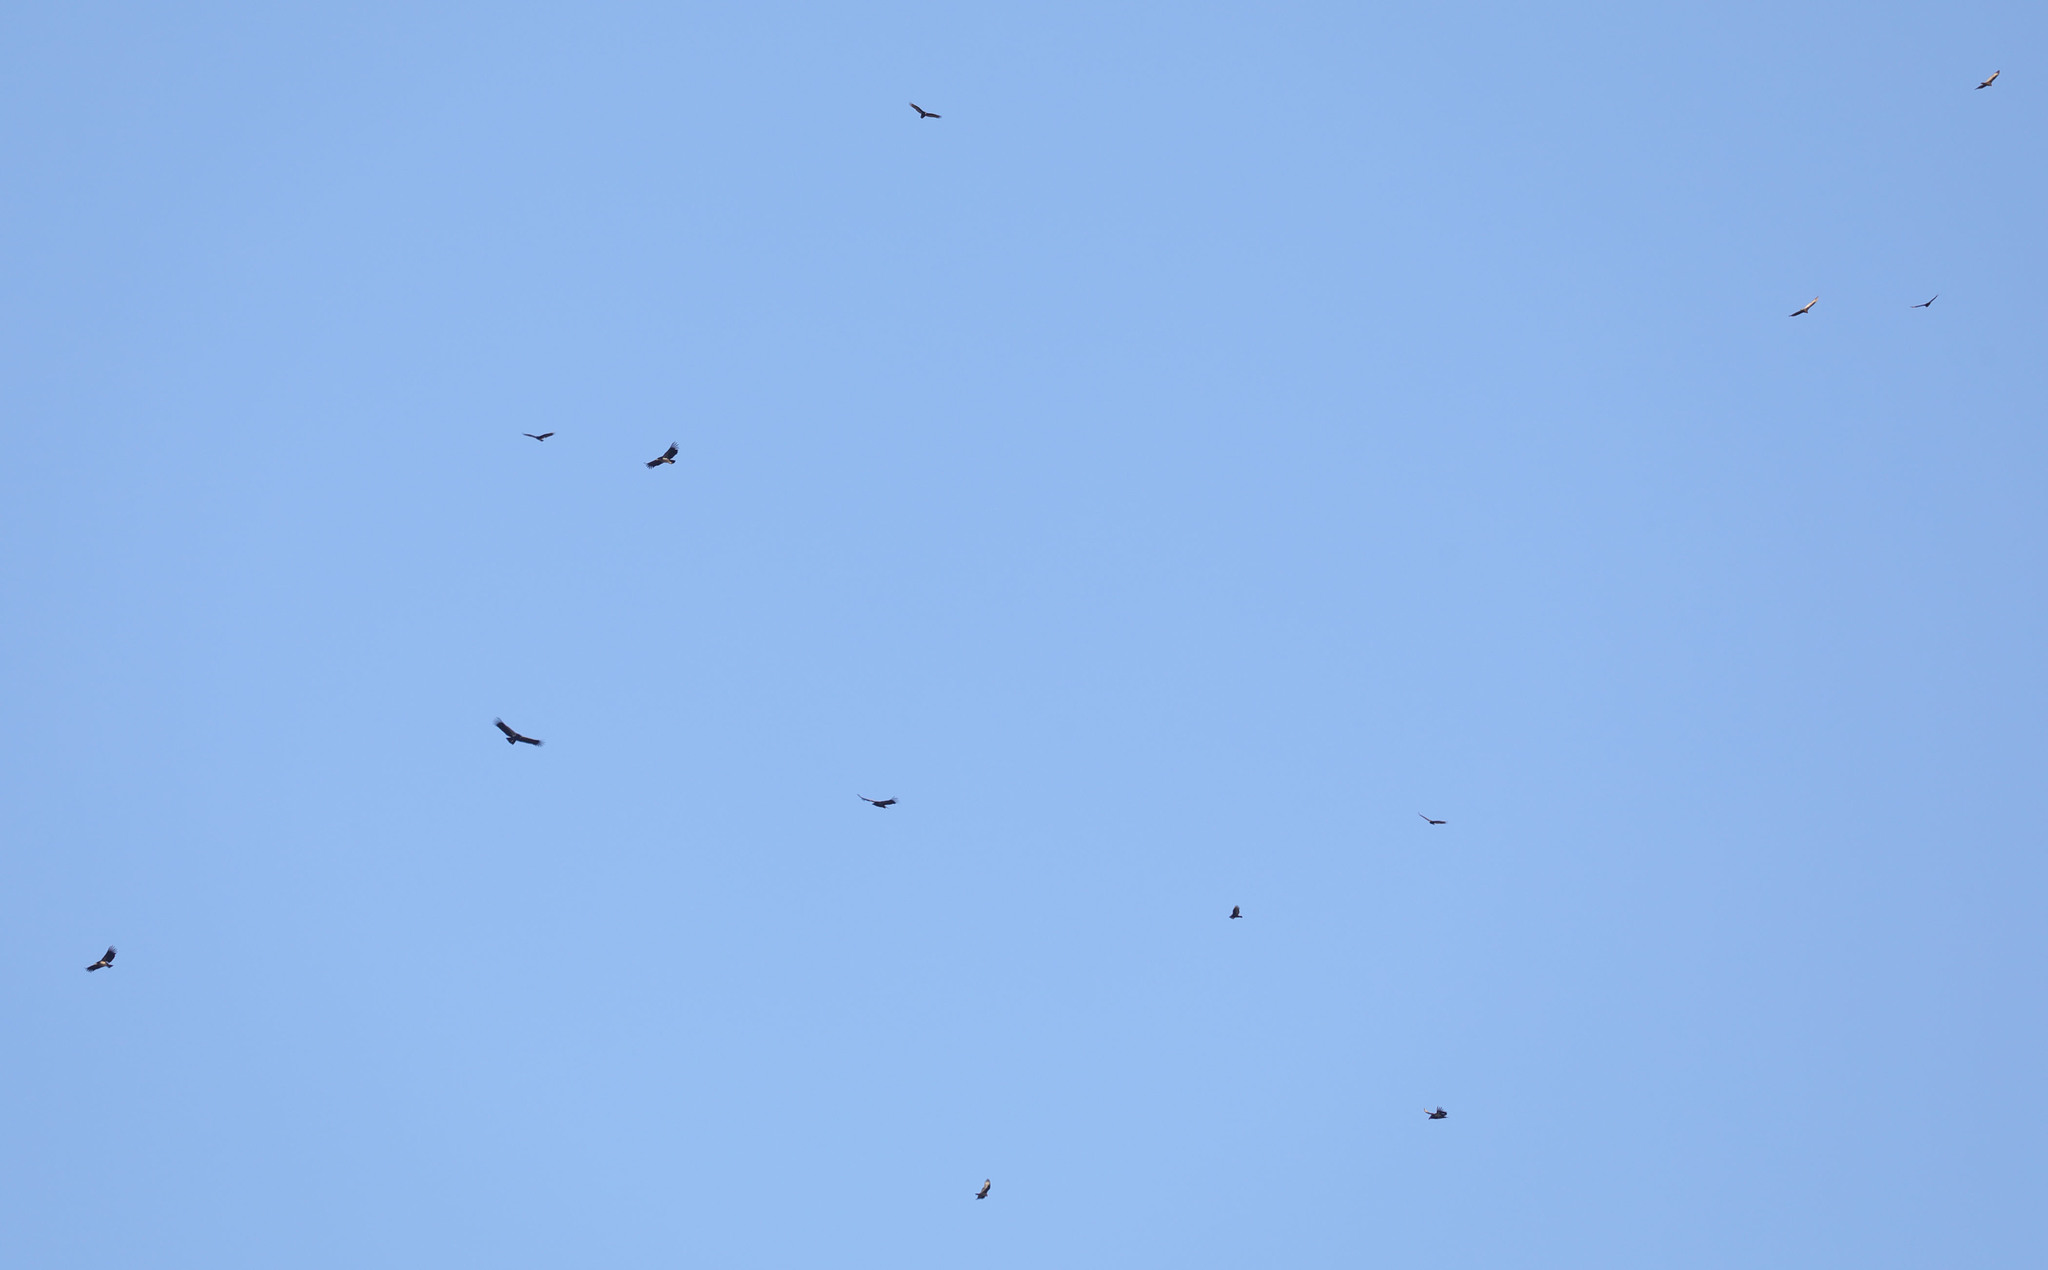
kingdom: Animalia
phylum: Chordata
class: Aves
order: Accipitriformes
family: Cathartidae
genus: Gymnogyps
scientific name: Gymnogyps californianus
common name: California condor
